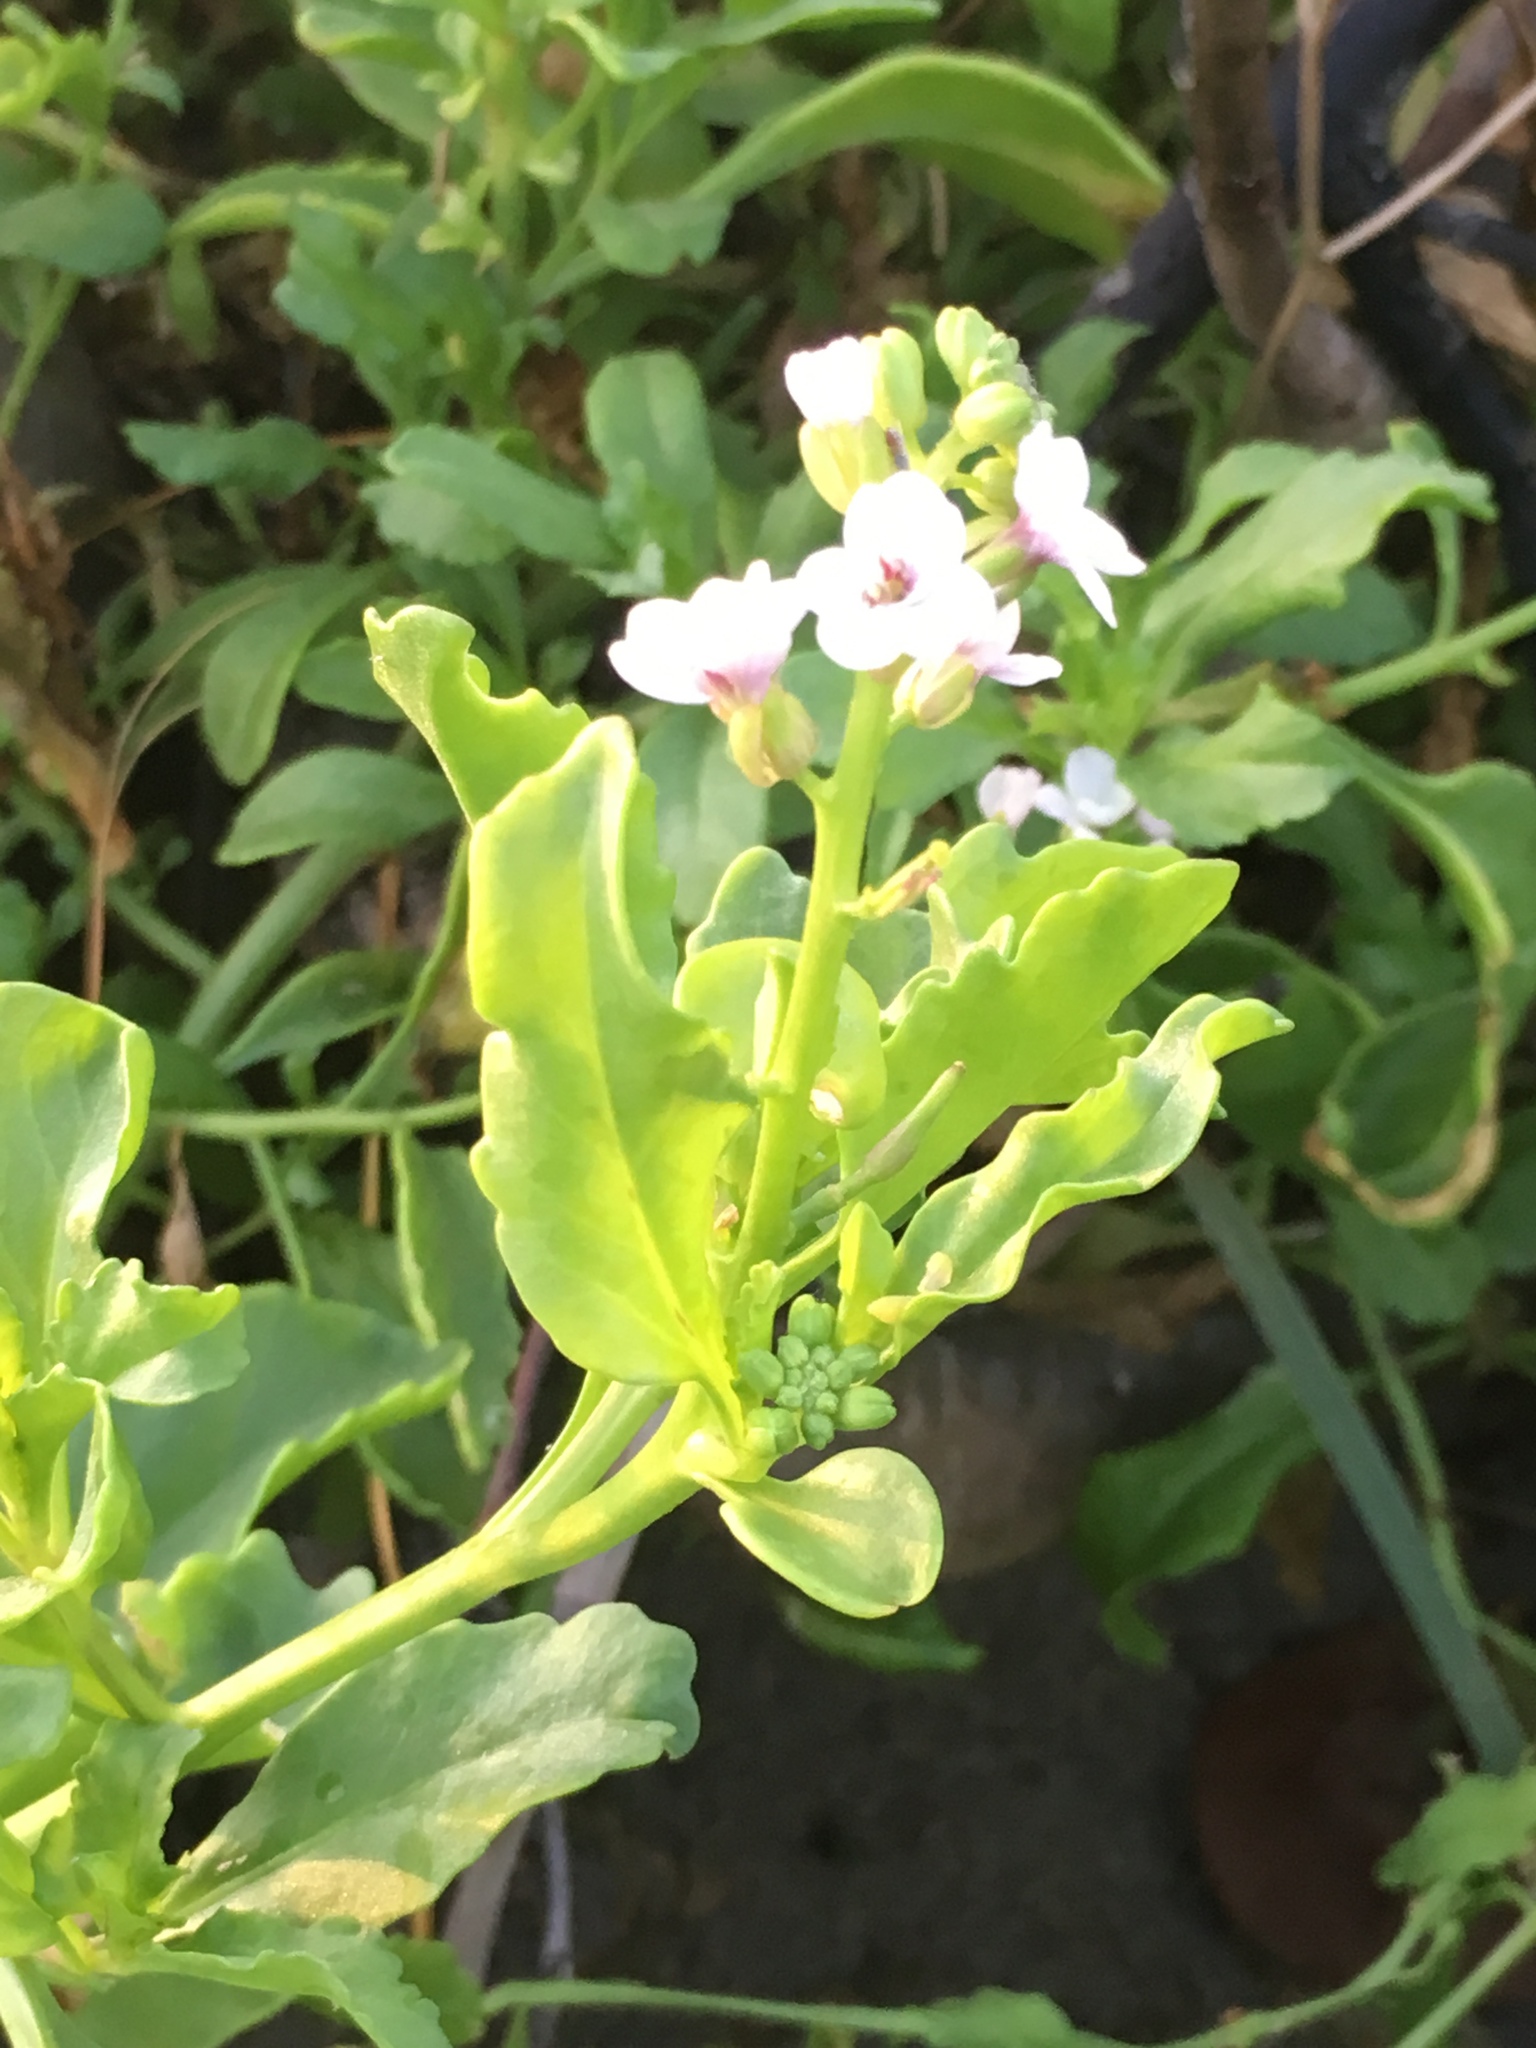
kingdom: Plantae
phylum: Tracheophyta
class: Magnoliopsida
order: Brassicales
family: Brassicaceae
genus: Cakile
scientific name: Cakile edentula
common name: American sea rocket
